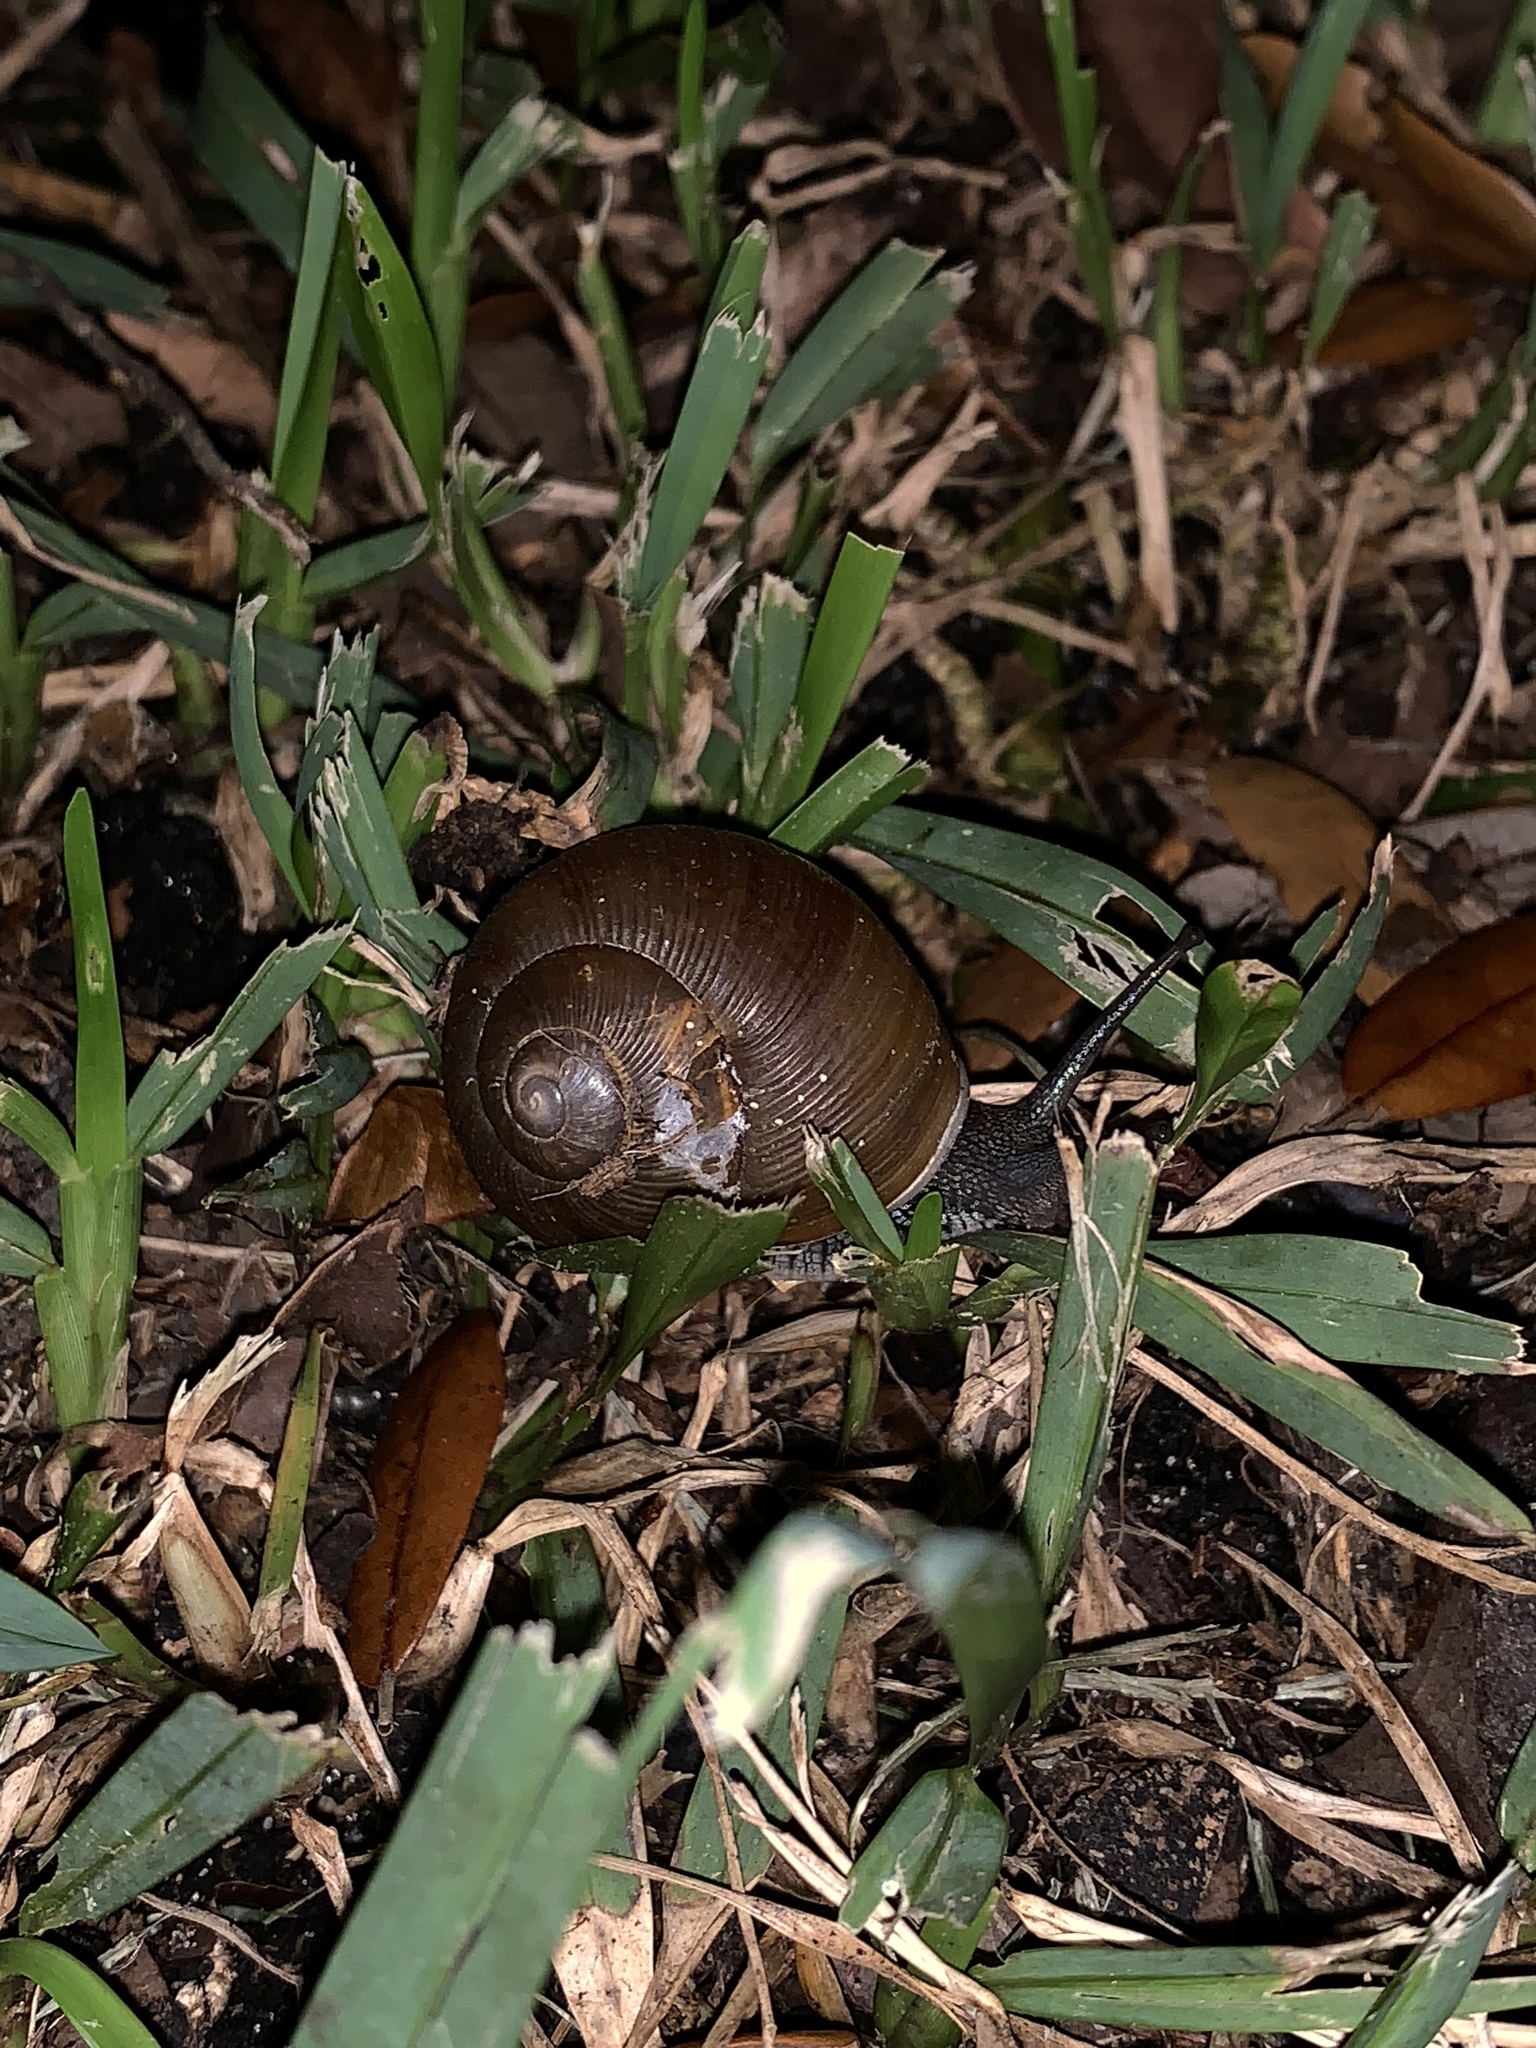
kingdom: Animalia
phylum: Mollusca
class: Gastropoda
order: Stylommatophora
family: Zachrysiidae
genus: Zachrysia
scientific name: Zachrysia provisoria
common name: Garden zachrysia
